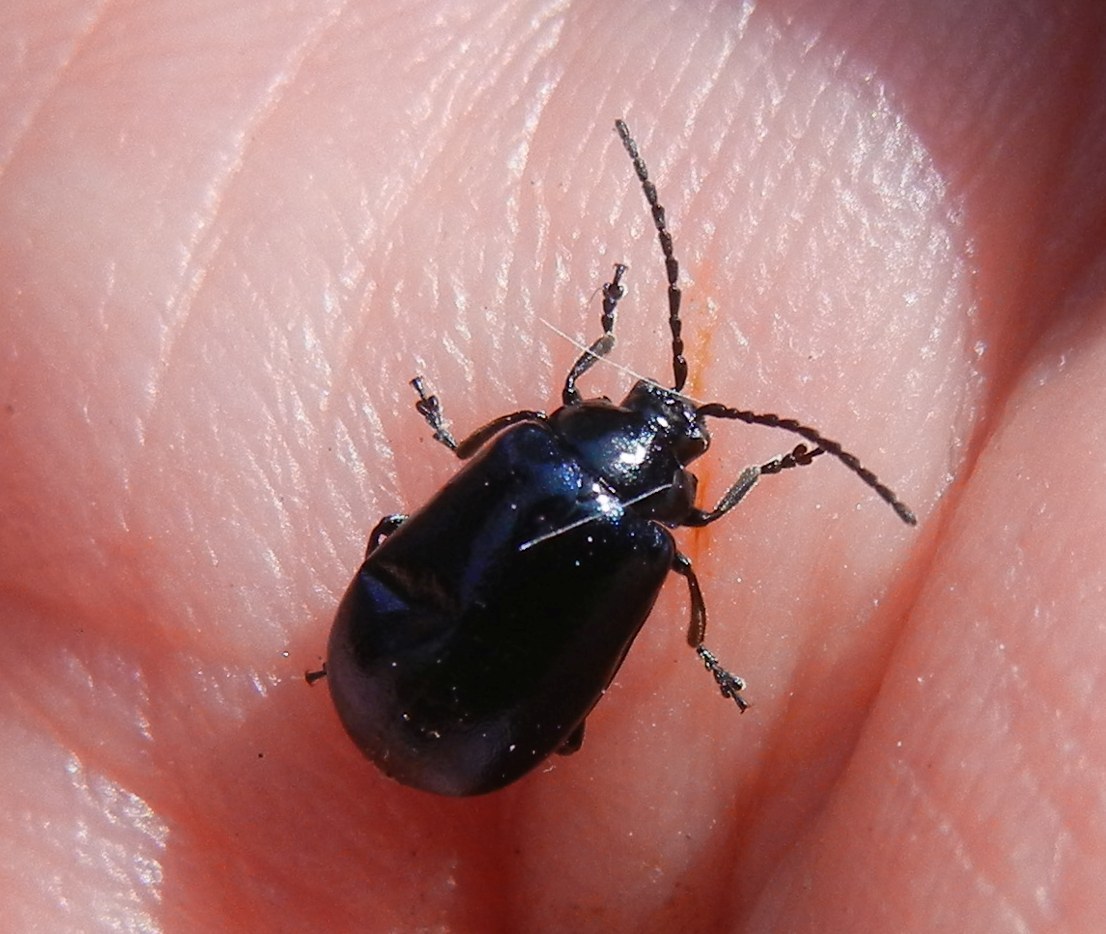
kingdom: Animalia
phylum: Arthropoda
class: Insecta
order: Coleoptera
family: Chrysomelidae
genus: Agelastica
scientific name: Agelastica alni
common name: Alder leaf beetle
